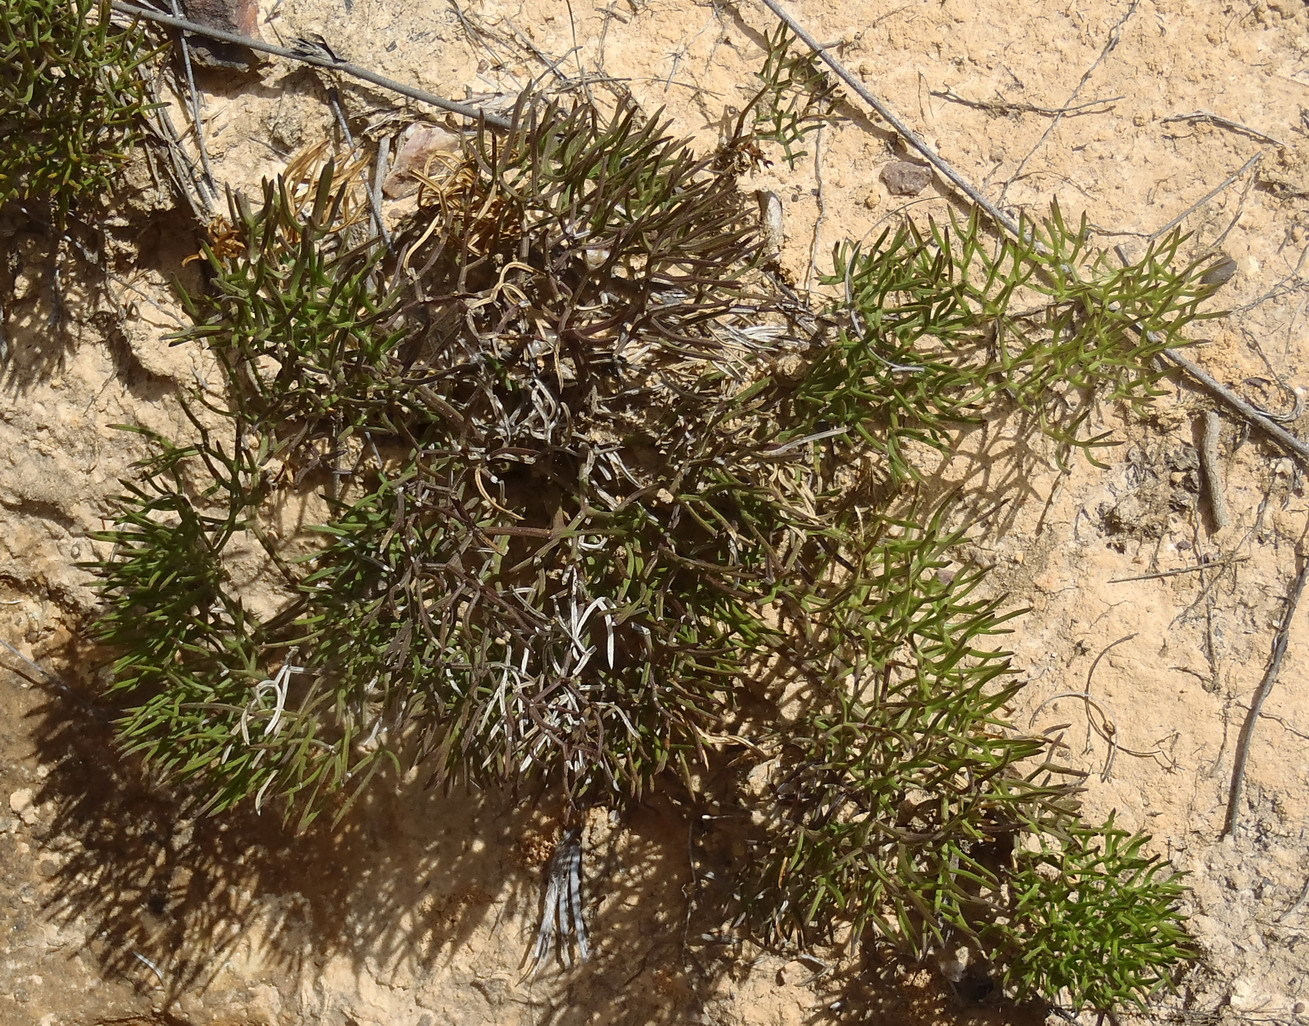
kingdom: Plantae
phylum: Tracheophyta
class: Magnoliopsida
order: Apiales
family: Apiaceae
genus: Nanobubon
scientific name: Nanobubon capillaceum
